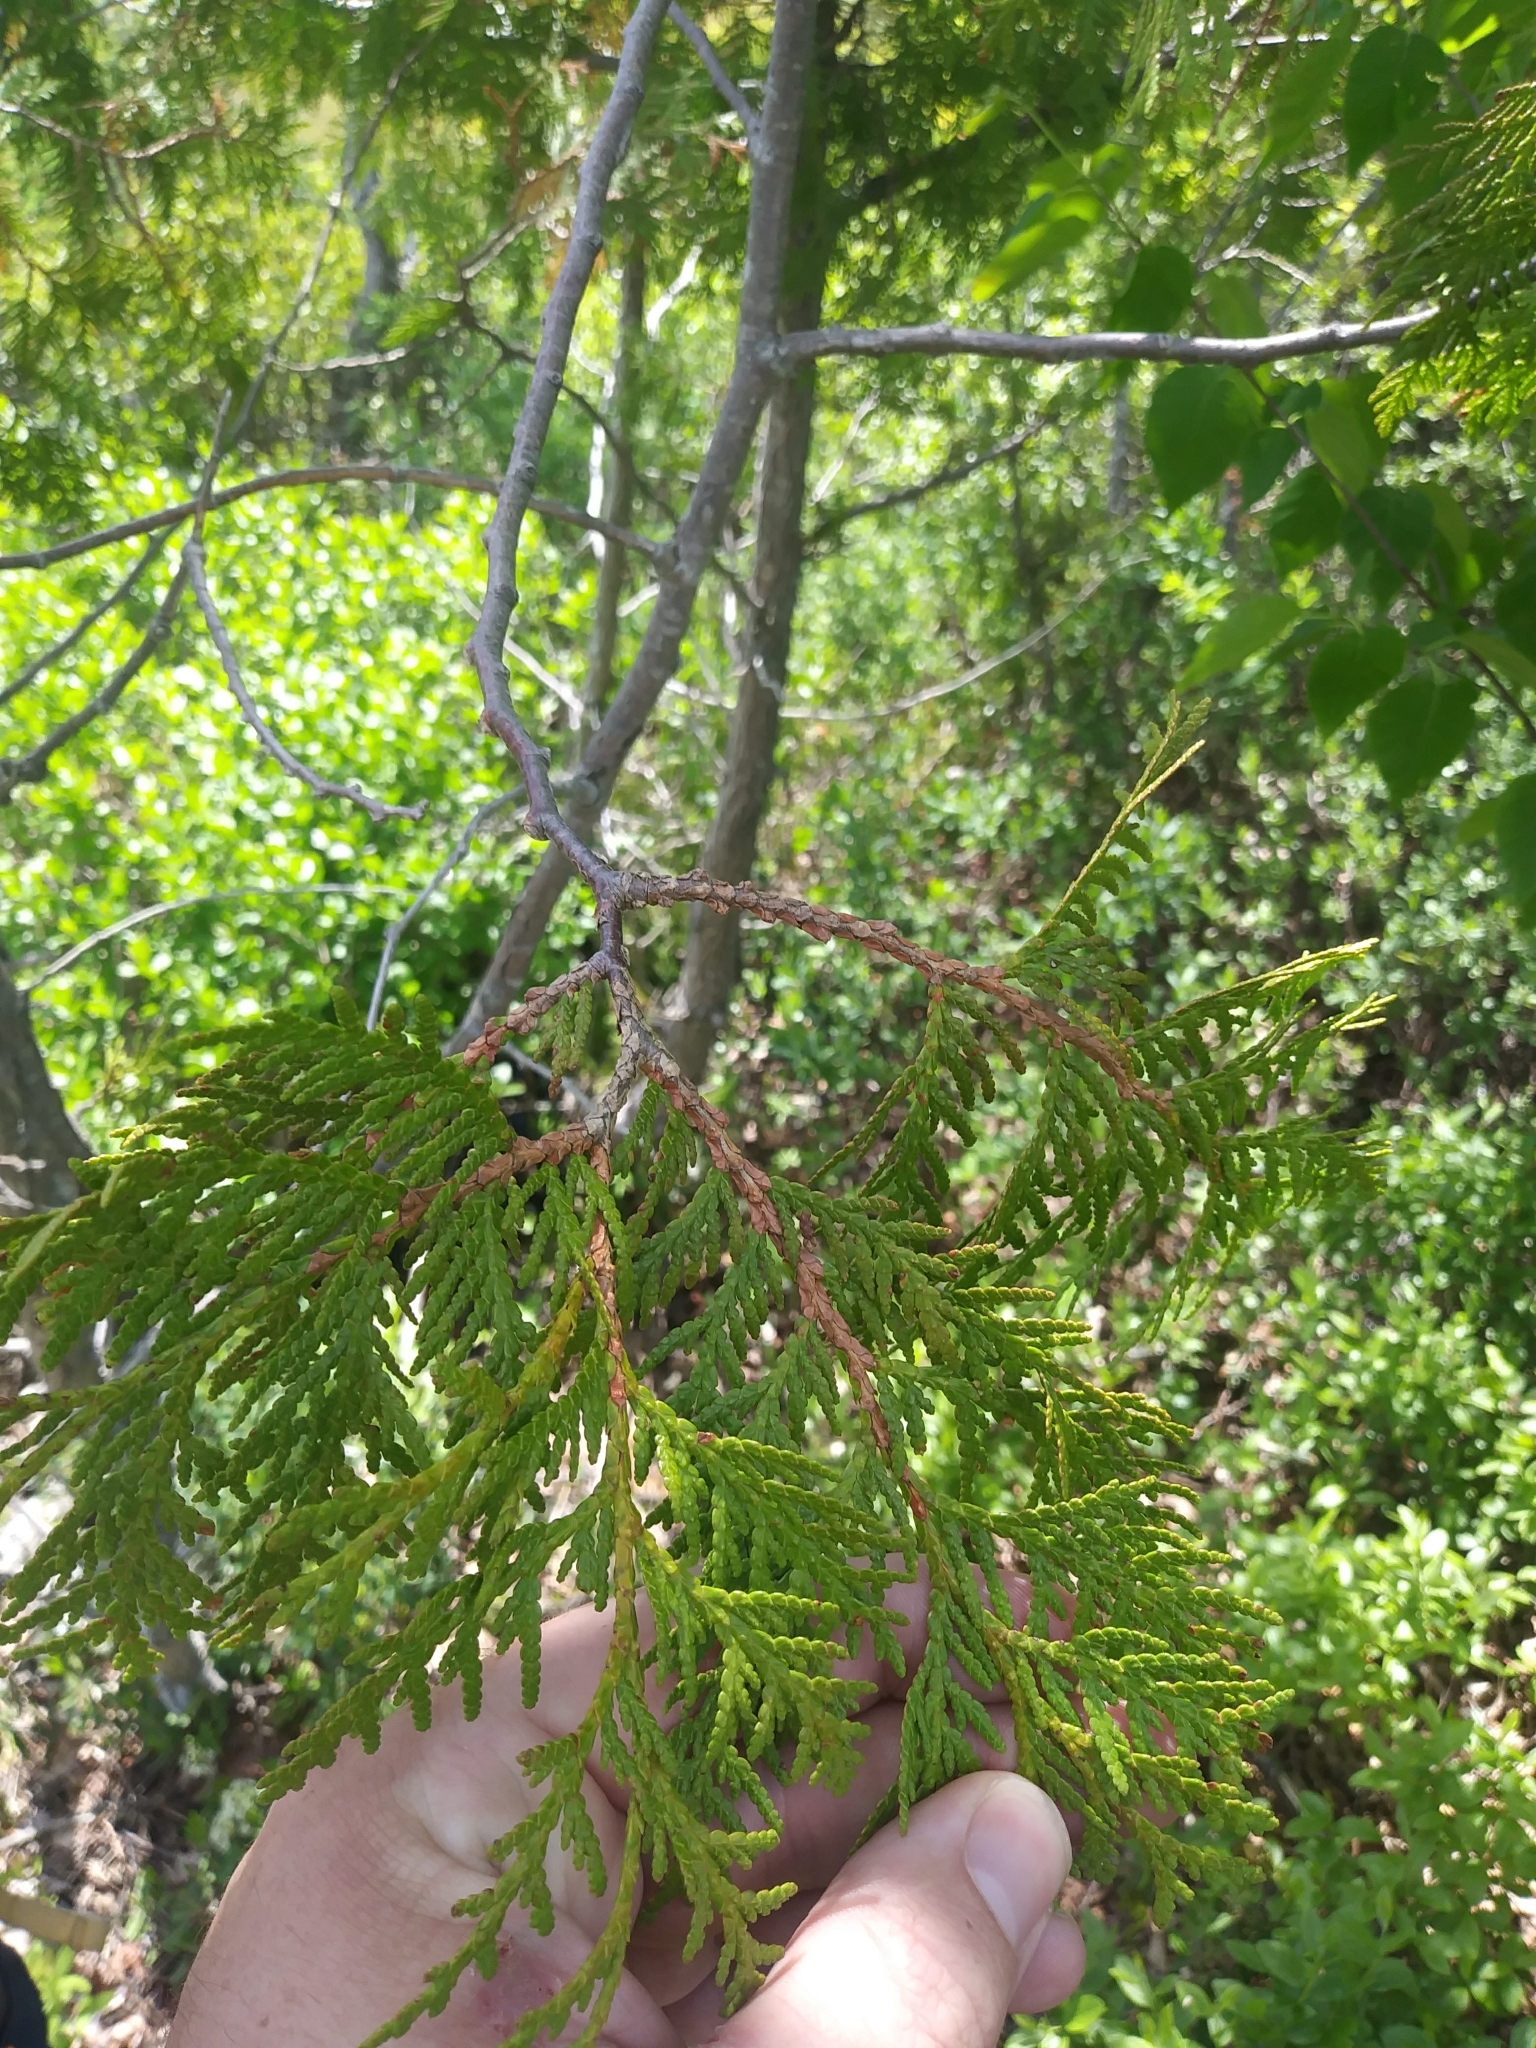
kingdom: Plantae
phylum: Tracheophyta
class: Pinopsida
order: Pinales
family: Cupressaceae
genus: Thuja
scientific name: Thuja occidentalis
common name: Northern white-cedar
